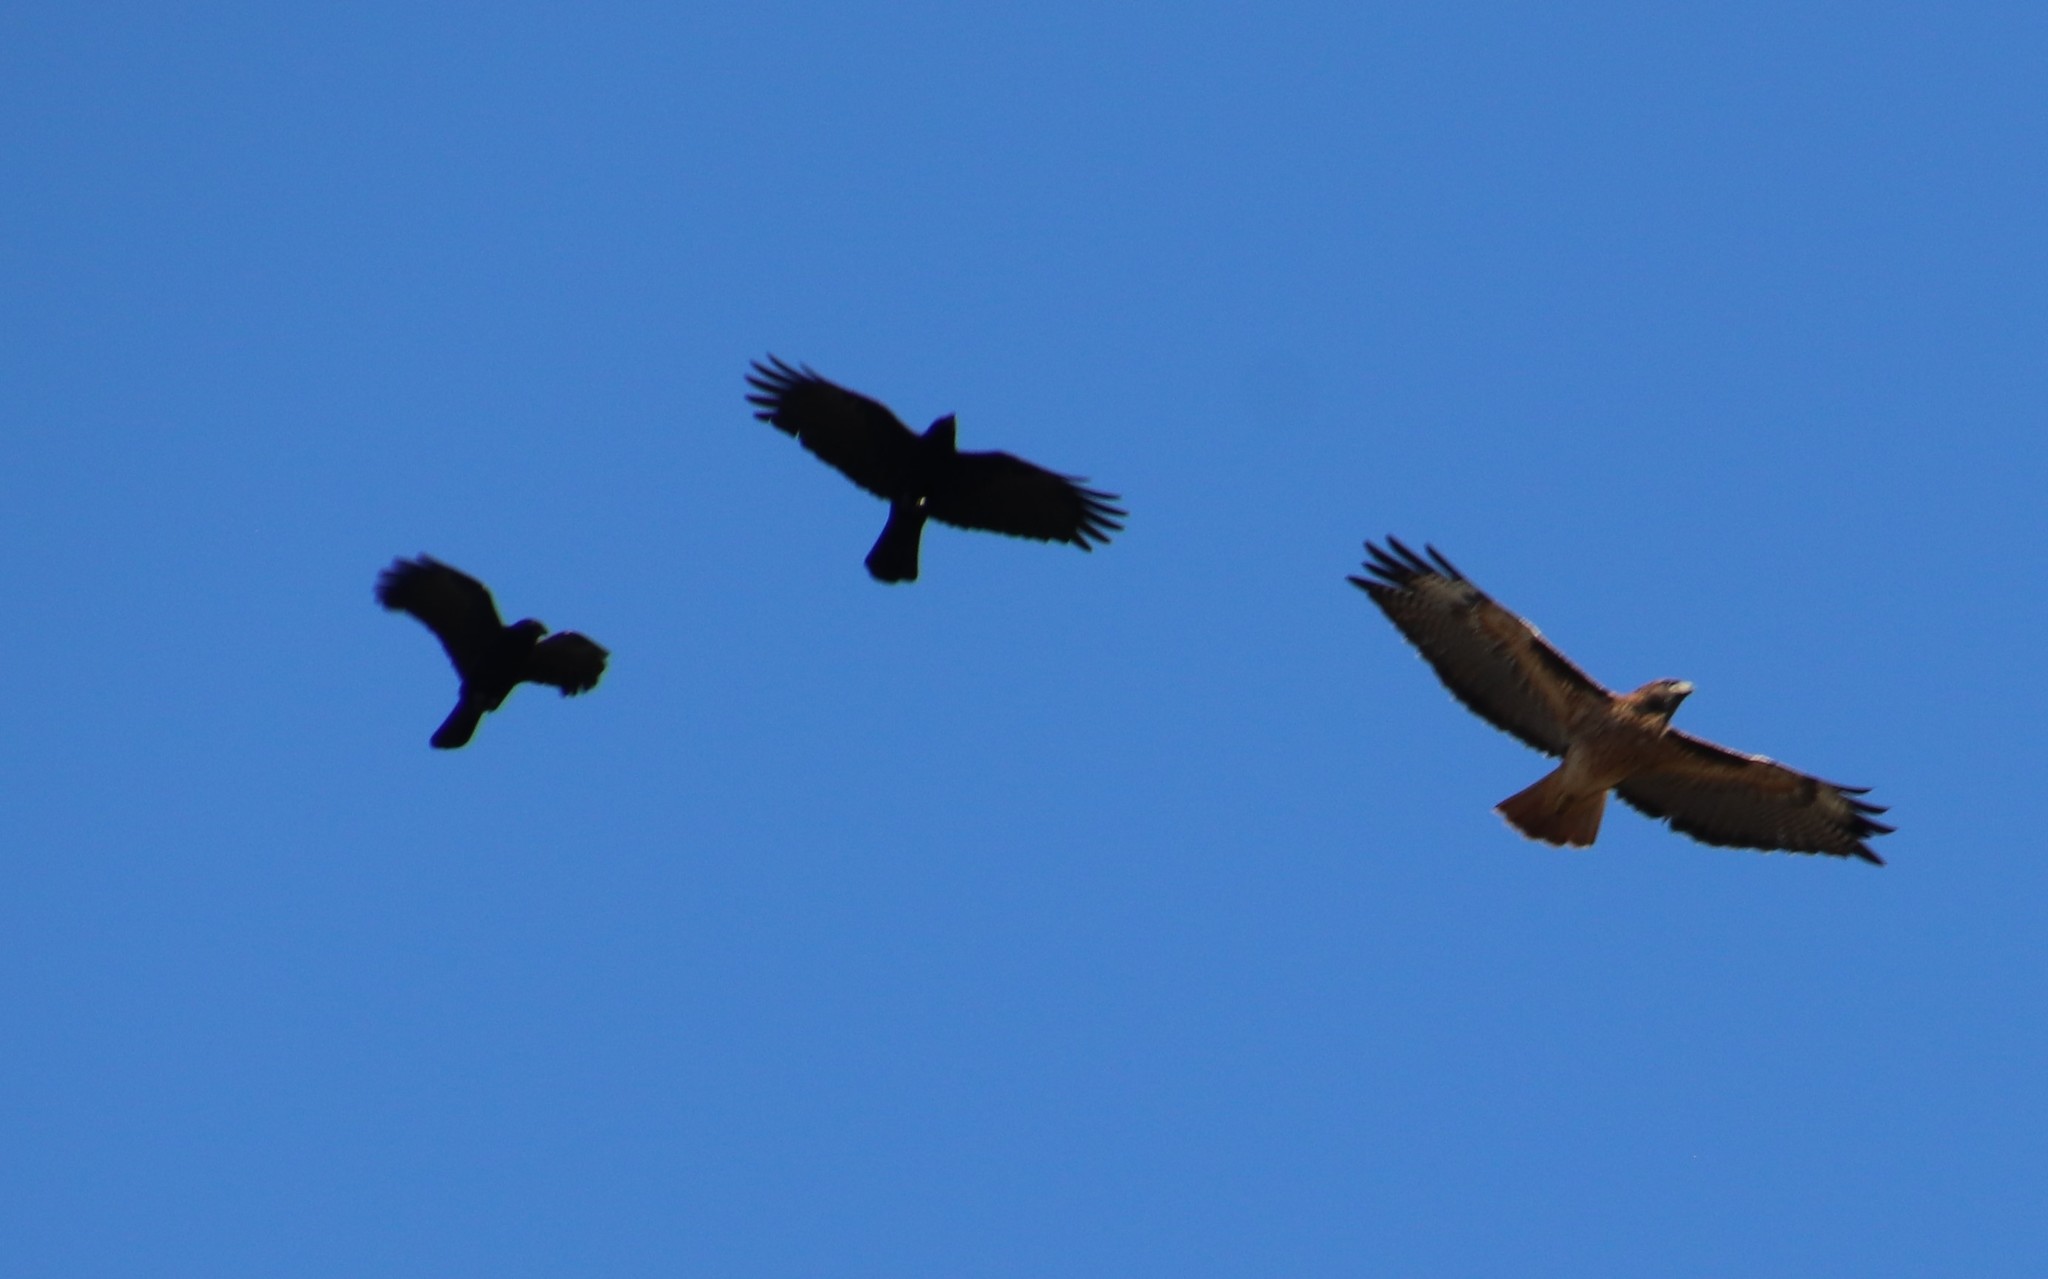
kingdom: Animalia
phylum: Chordata
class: Aves
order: Passeriformes
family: Corvidae
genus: Corvus
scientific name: Corvus brachyrhynchos
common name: American crow
